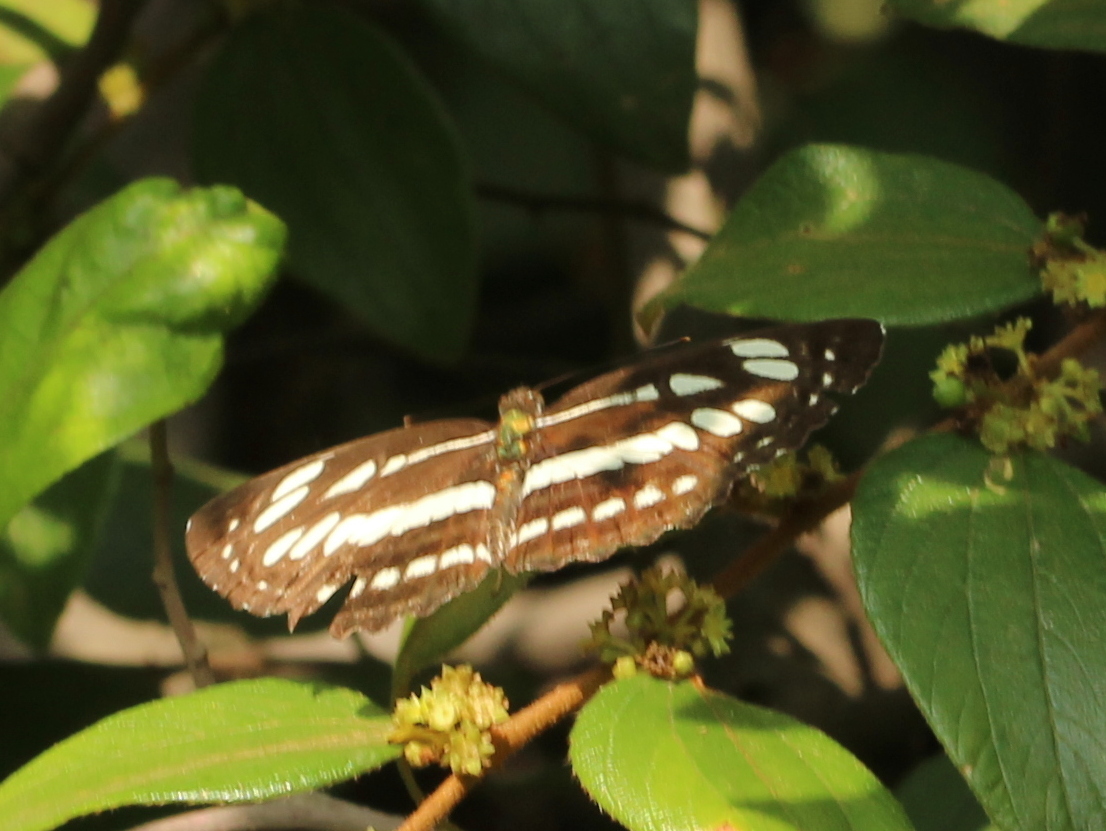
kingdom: Animalia
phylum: Arthropoda
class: Insecta
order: Lepidoptera
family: Nymphalidae
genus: Neptis
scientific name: Neptis hylas
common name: Common sailer
